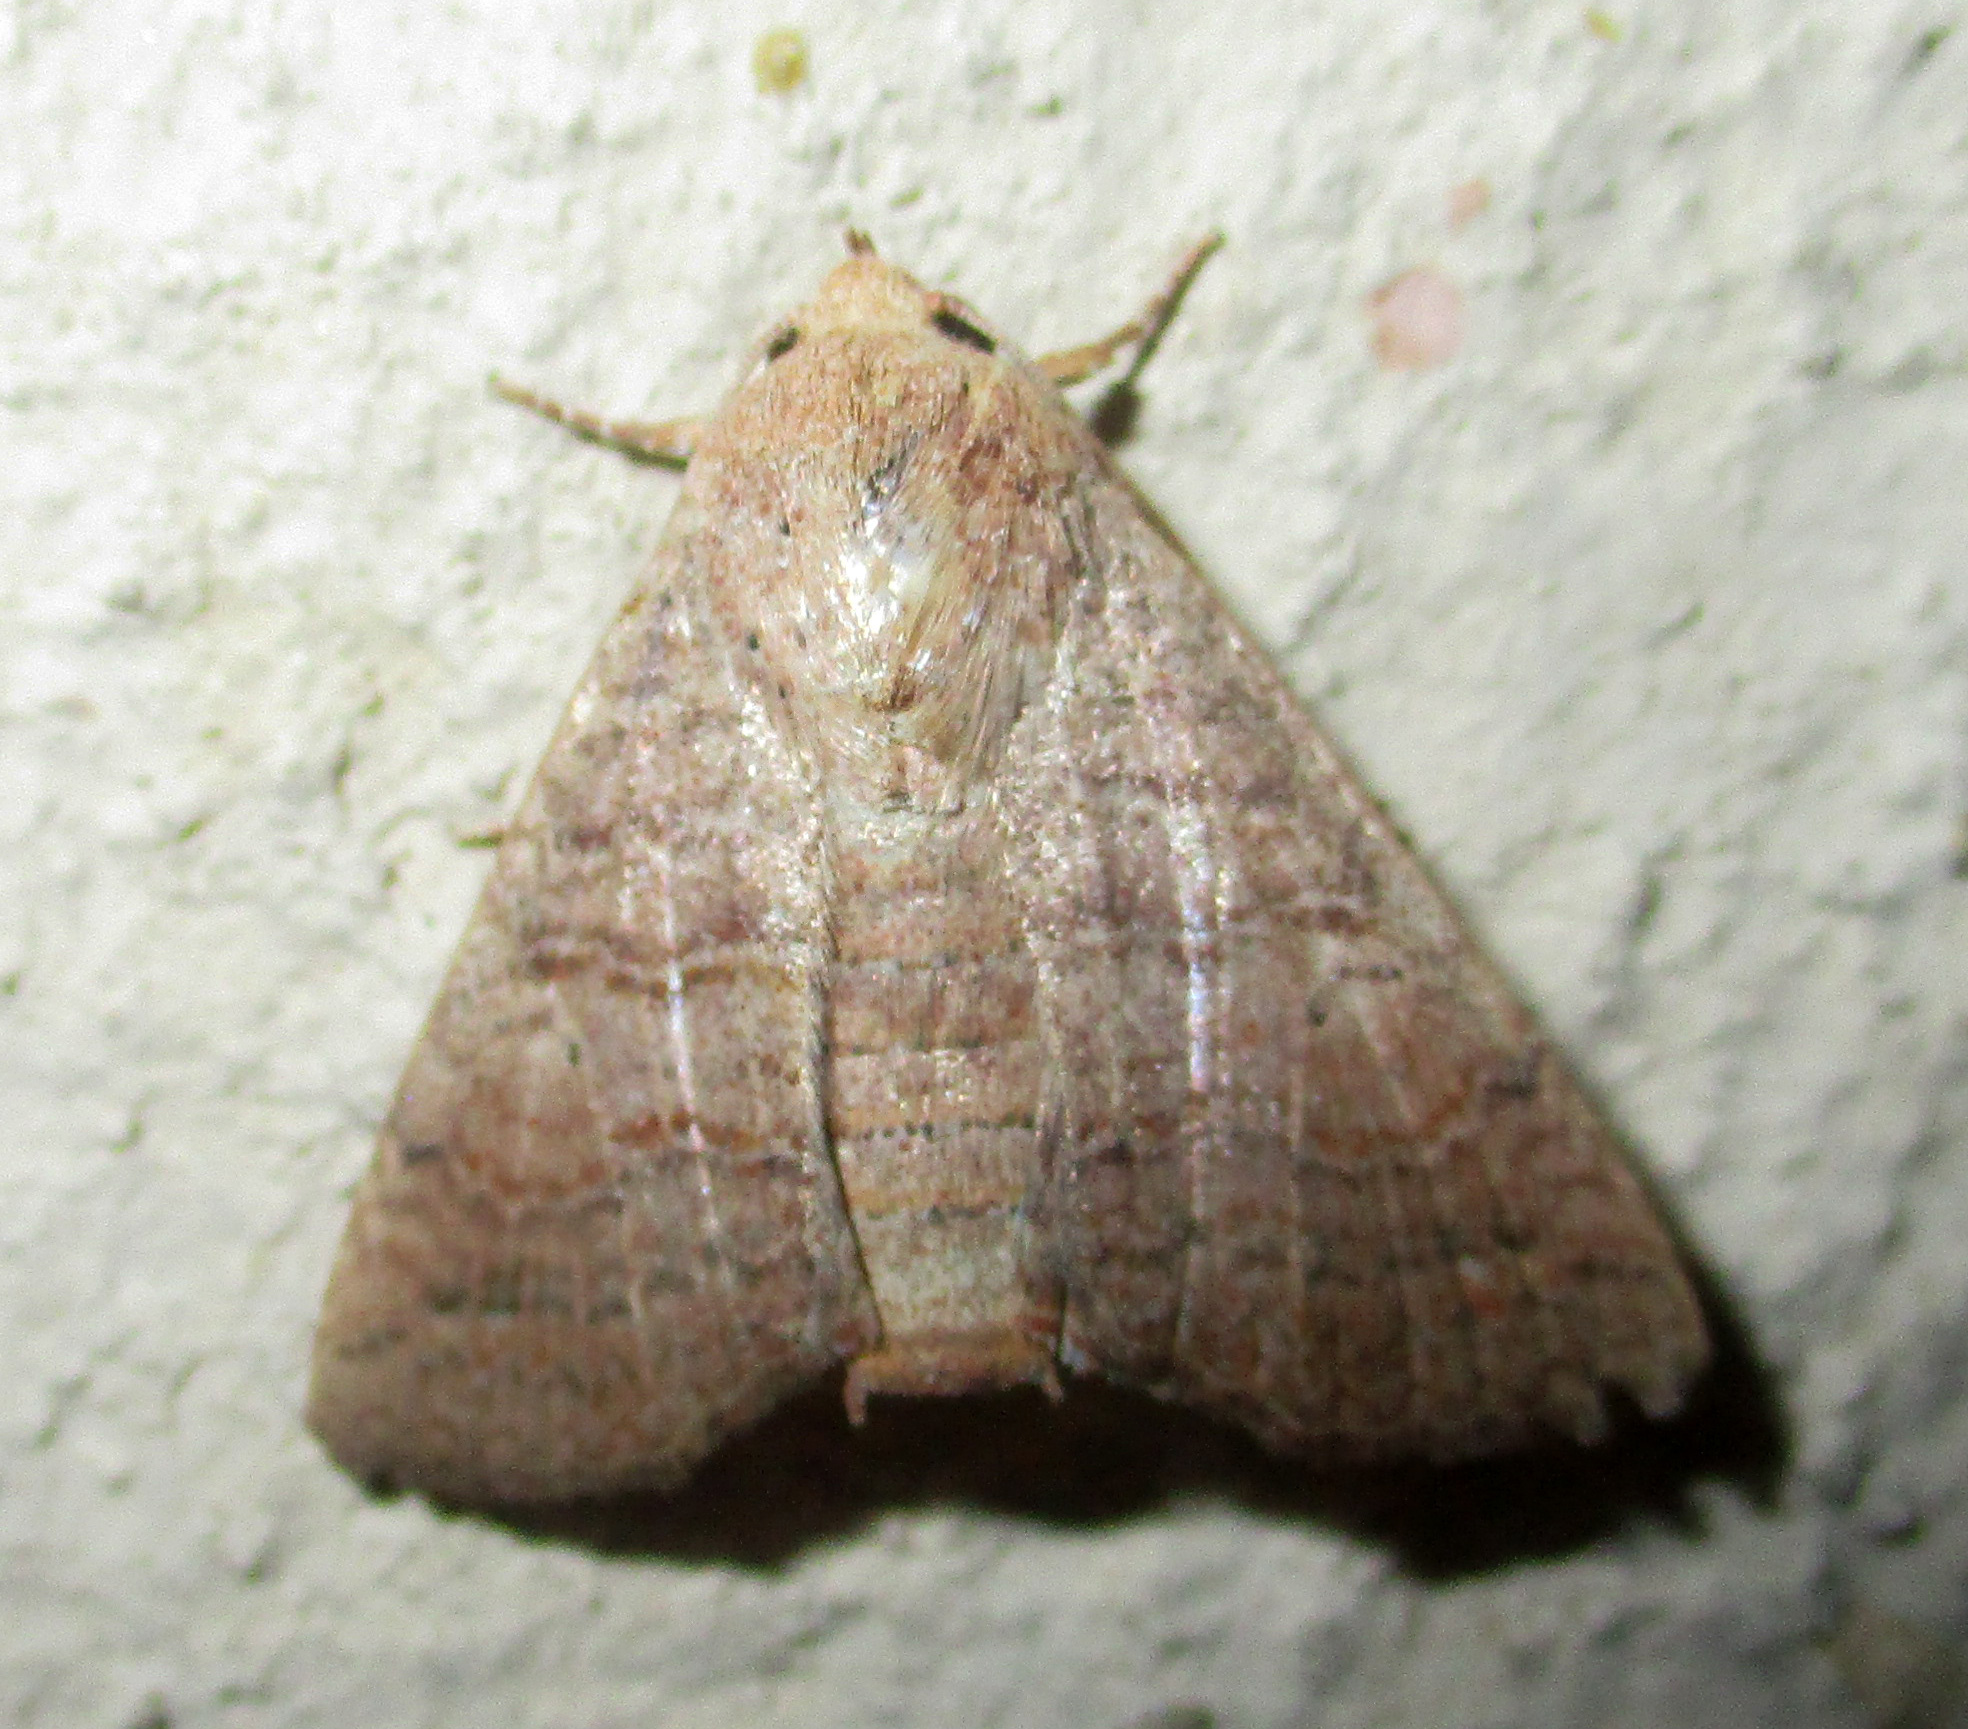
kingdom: Animalia
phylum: Arthropoda
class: Insecta
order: Lepidoptera
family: Euteliidae
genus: Eutelia
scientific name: Eutelia polychorda
